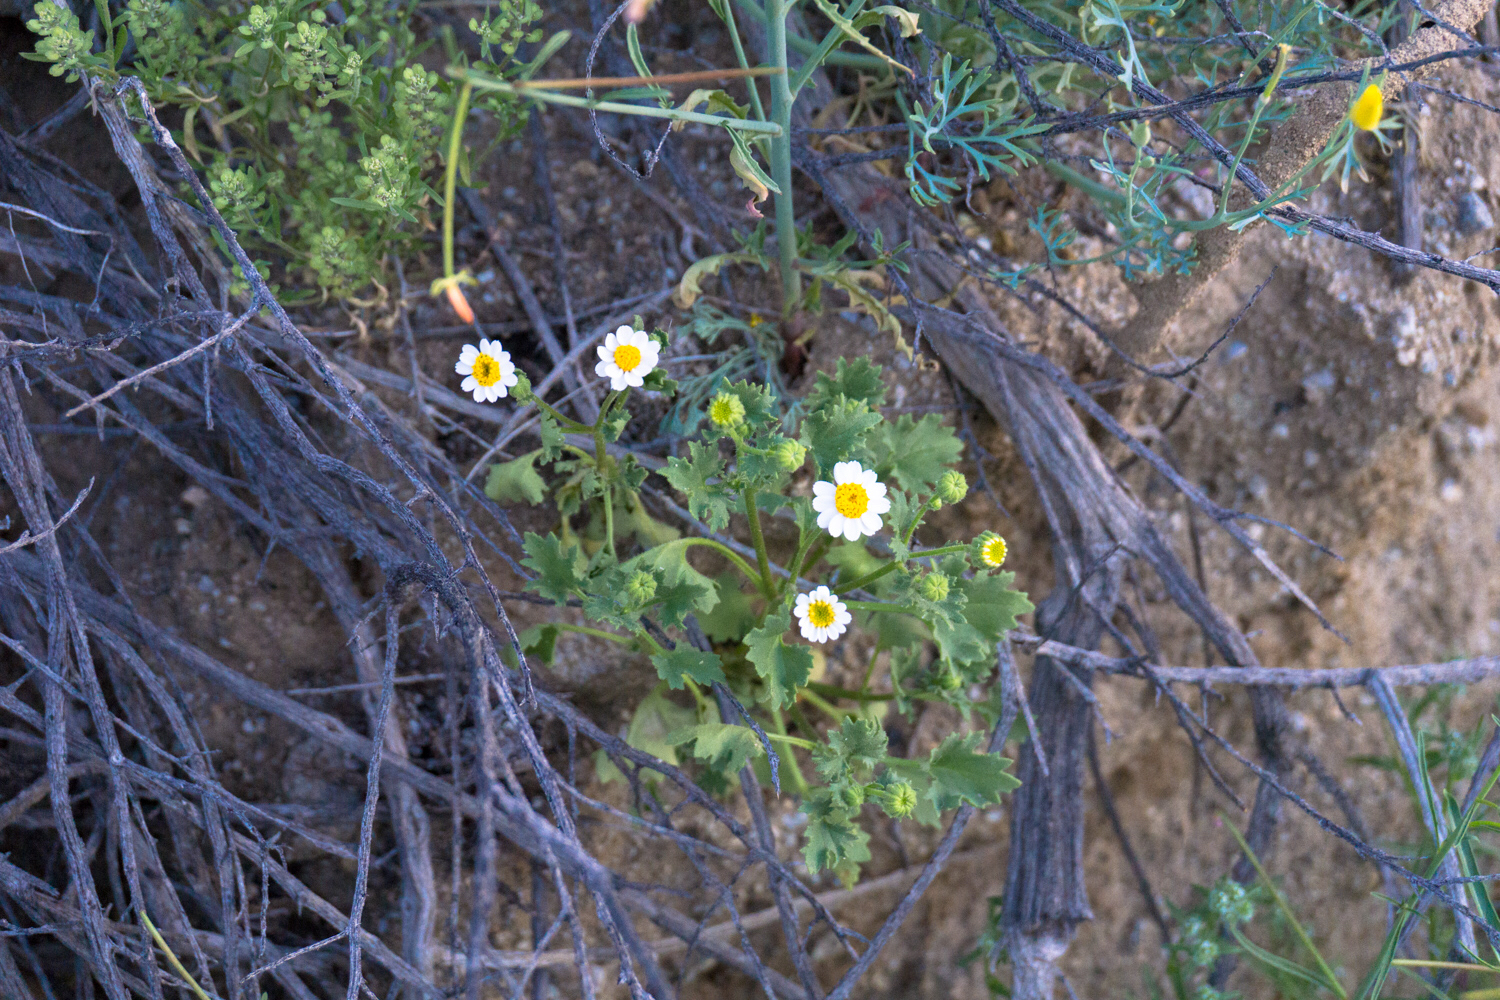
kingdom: Plantae
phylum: Tracheophyta
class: Magnoliopsida
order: Asterales
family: Asteraceae
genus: Laphamia
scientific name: Laphamia emoryi
